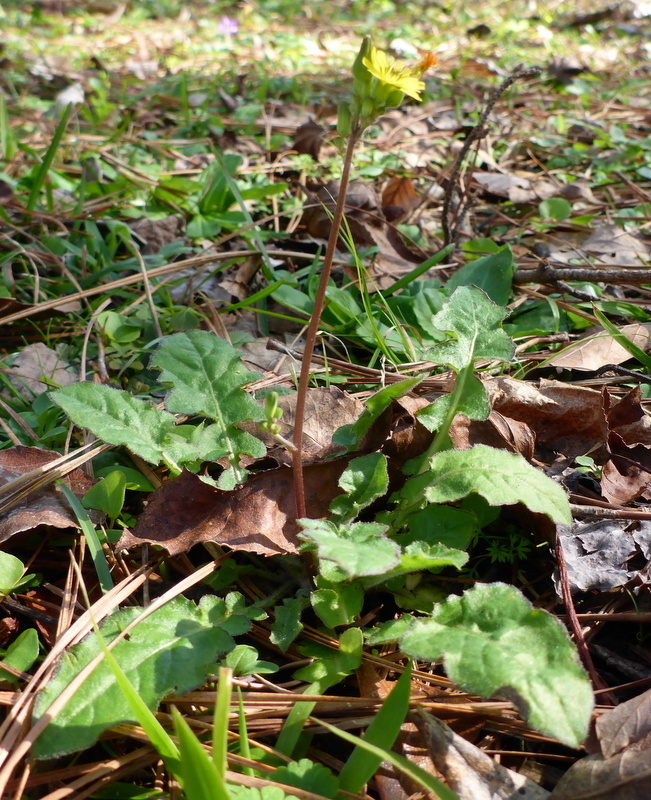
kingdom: Plantae
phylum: Tracheophyta
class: Magnoliopsida
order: Asterales
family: Asteraceae
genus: Youngia
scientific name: Youngia japonica
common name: Oriental false hawksbeard
